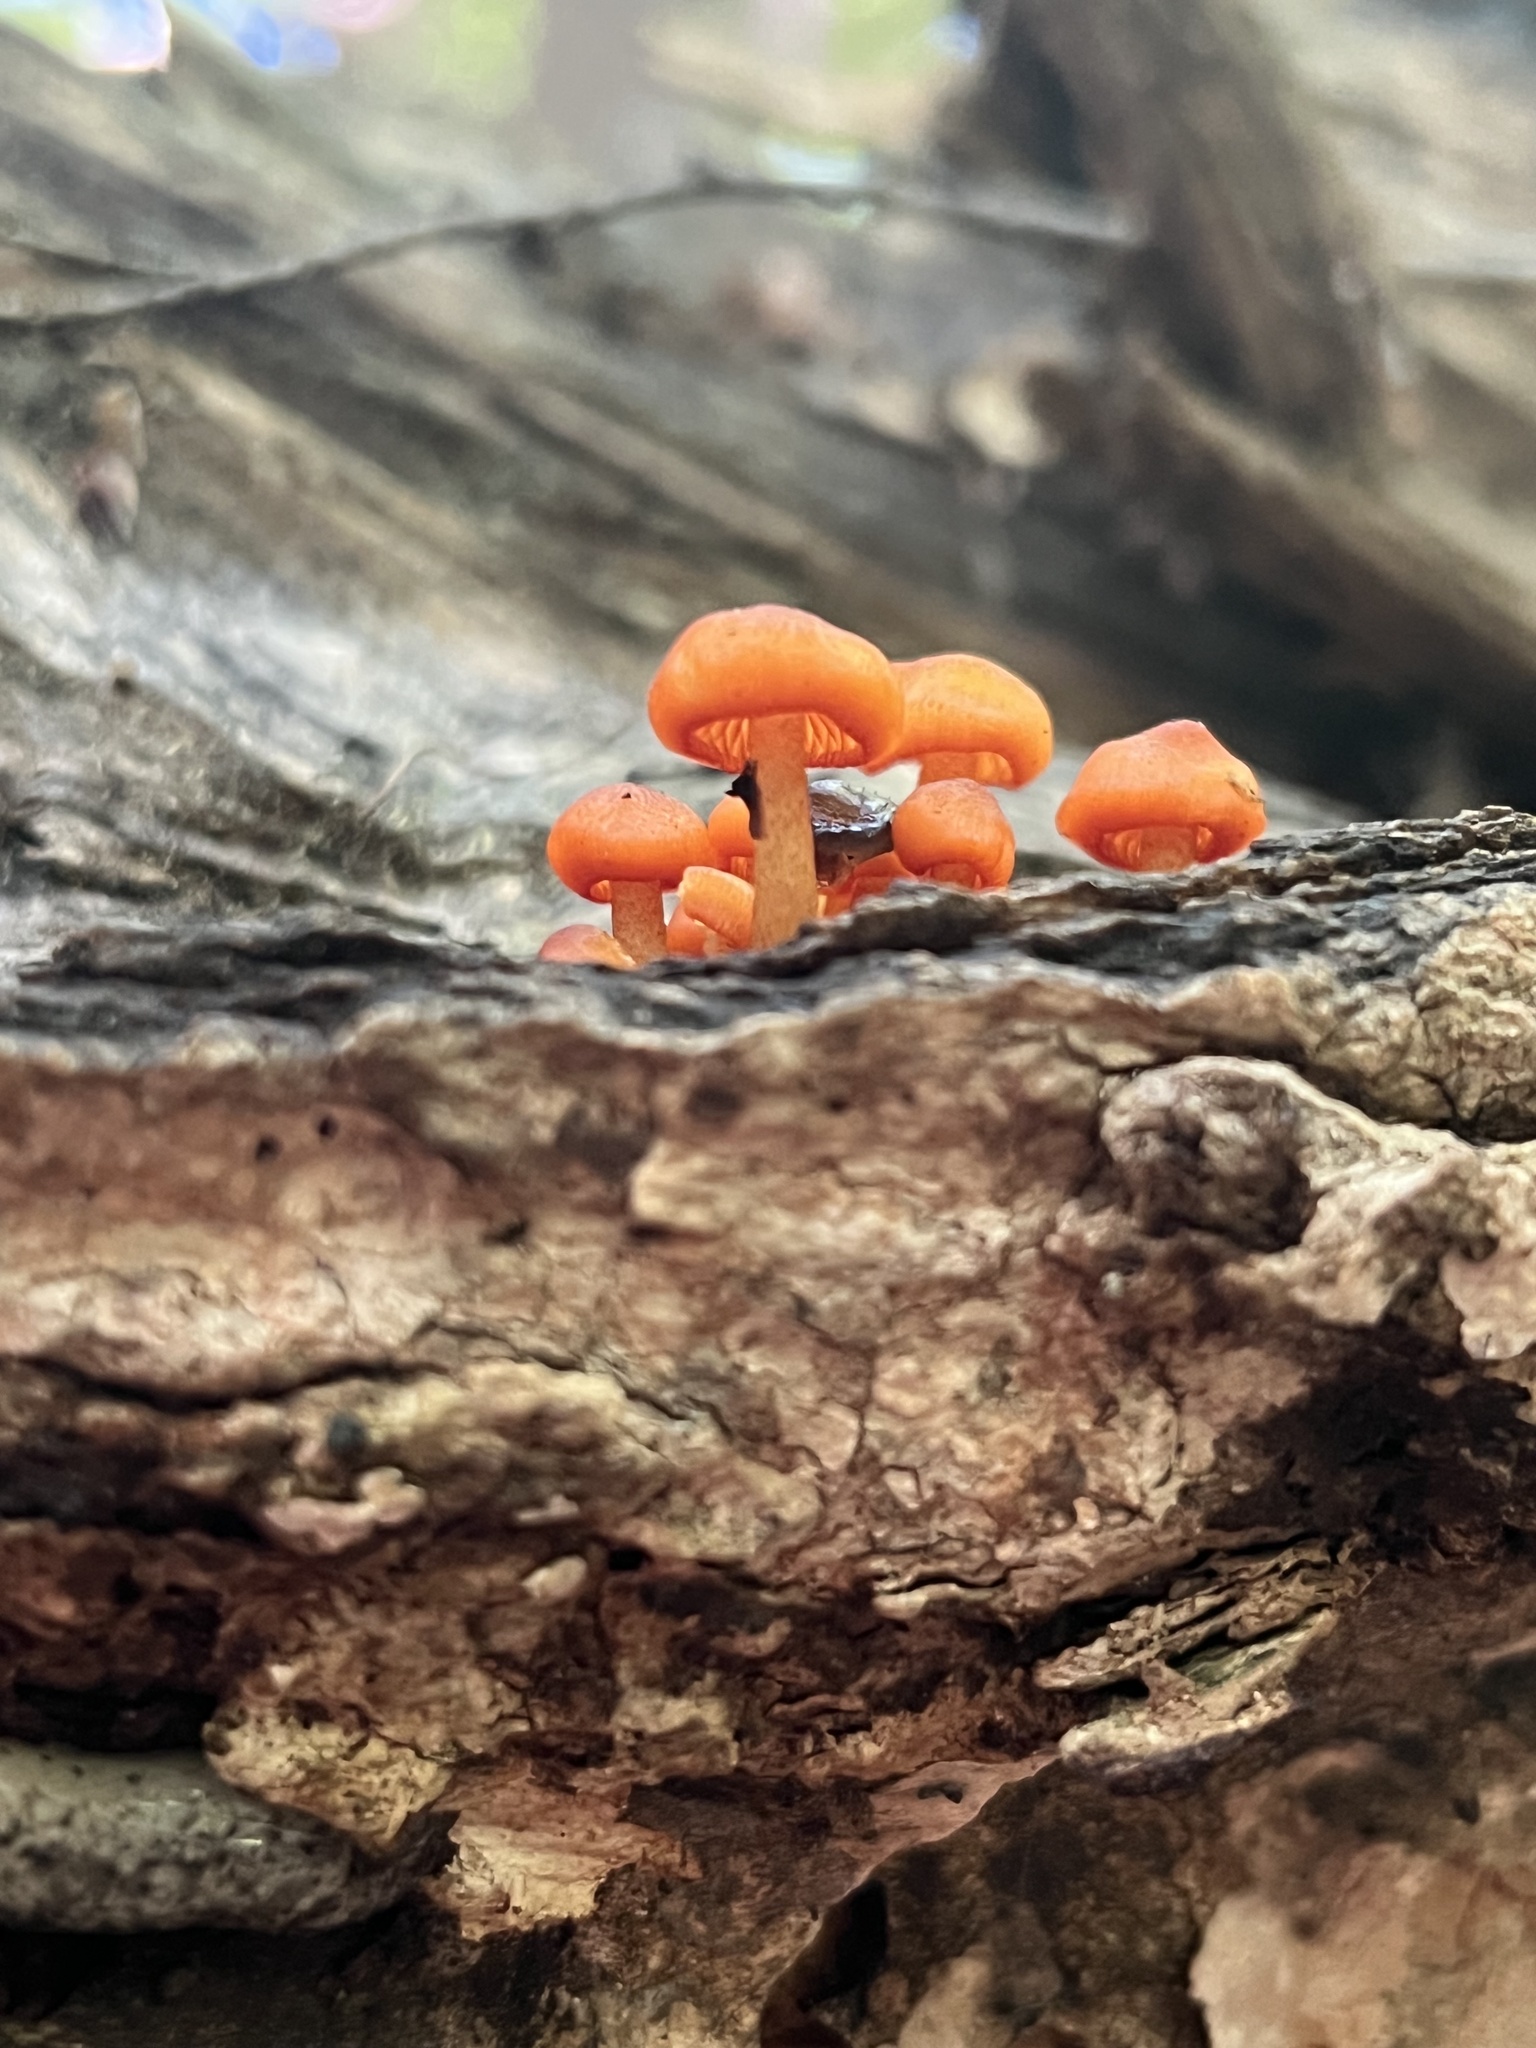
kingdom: Fungi
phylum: Basidiomycota
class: Agaricomycetes
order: Agaricales
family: Mycenaceae
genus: Mycena
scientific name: Mycena leaiana
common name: Orange mycena
